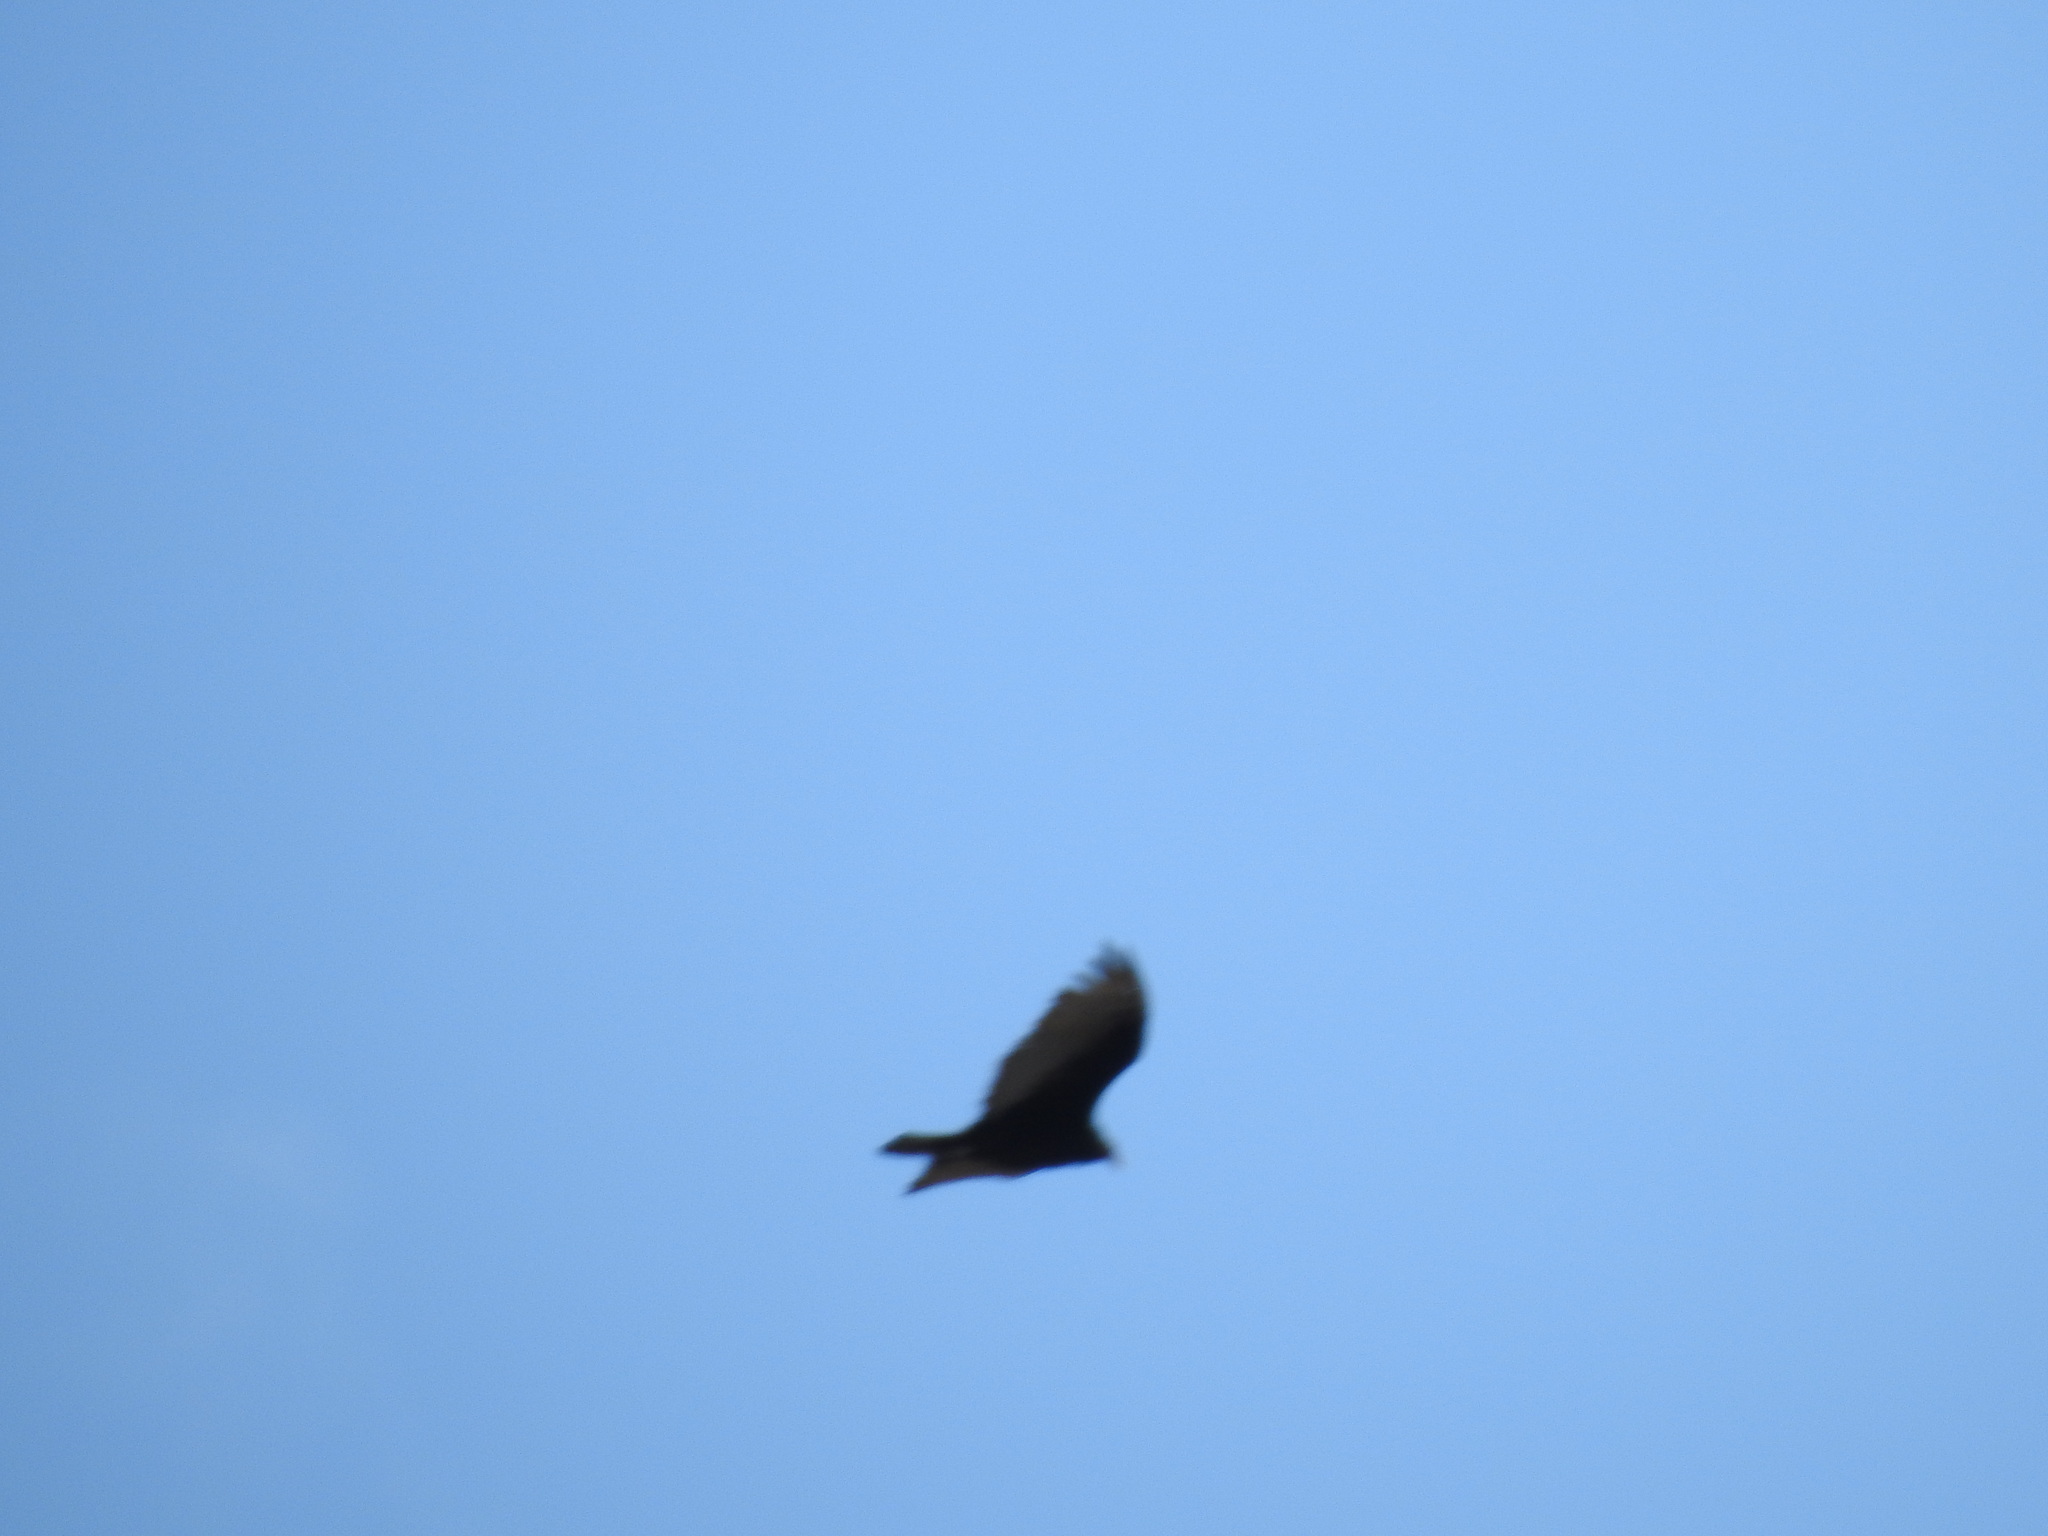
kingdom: Animalia
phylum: Chordata
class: Aves
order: Accipitriformes
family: Cathartidae
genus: Cathartes
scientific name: Cathartes aura
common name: Turkey vulture
